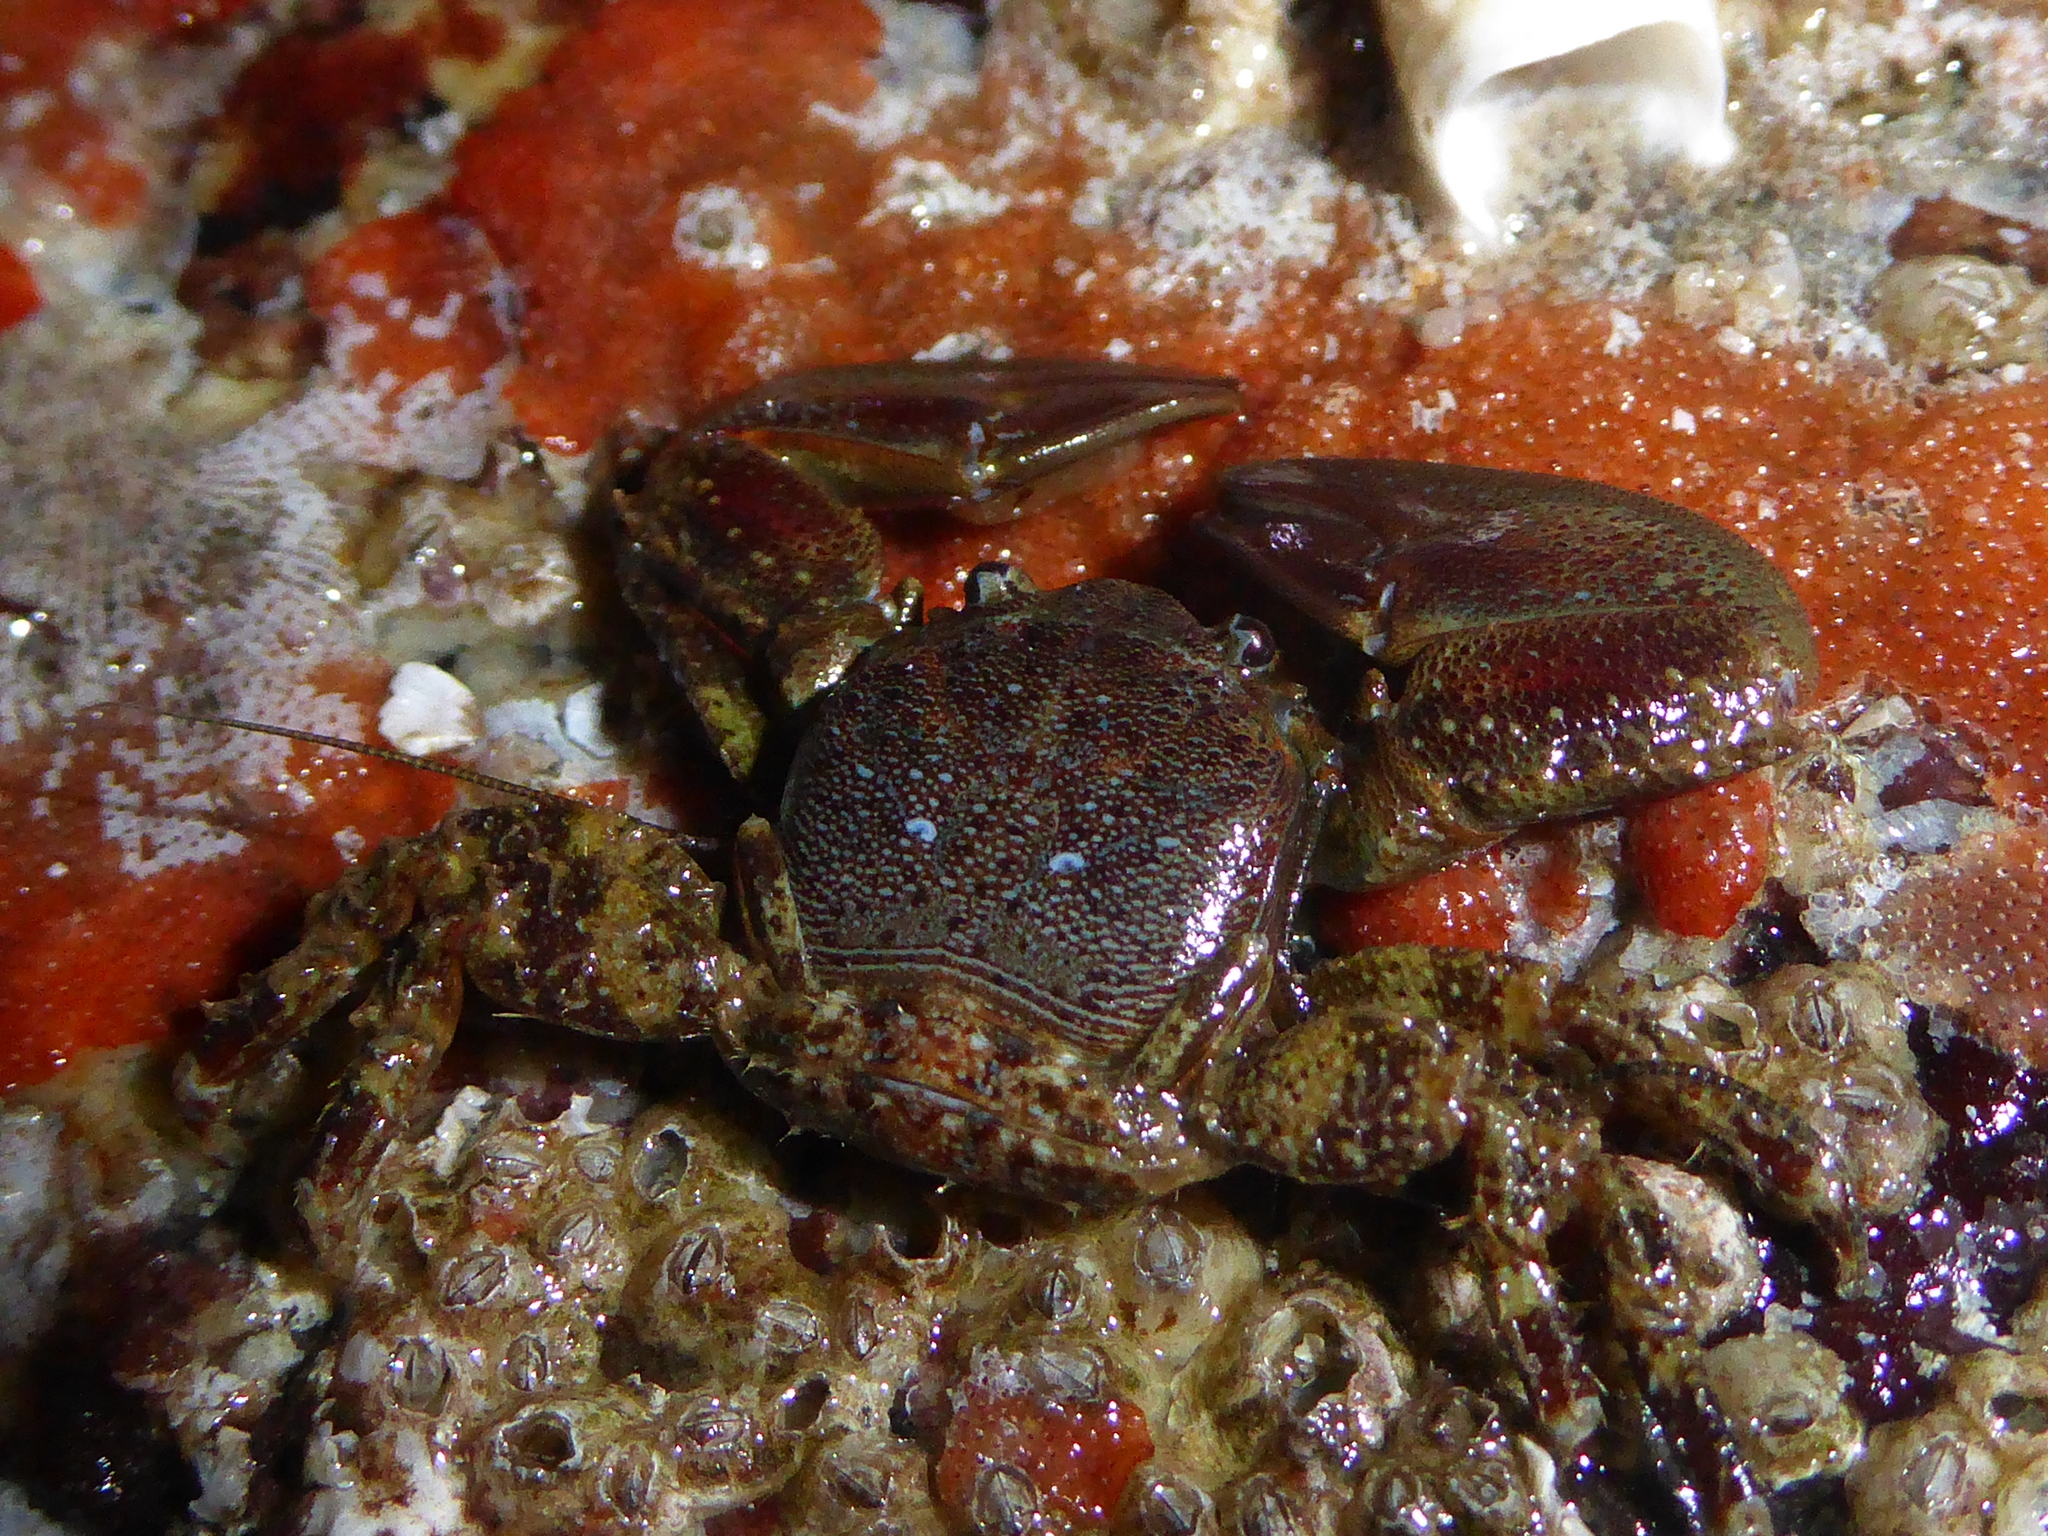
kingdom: Animalia
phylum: Arthropoda
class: Malacostraca
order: Decapoda
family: Porcellanidae
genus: Petrolisthes
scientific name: Petrolisthes eriomerus
